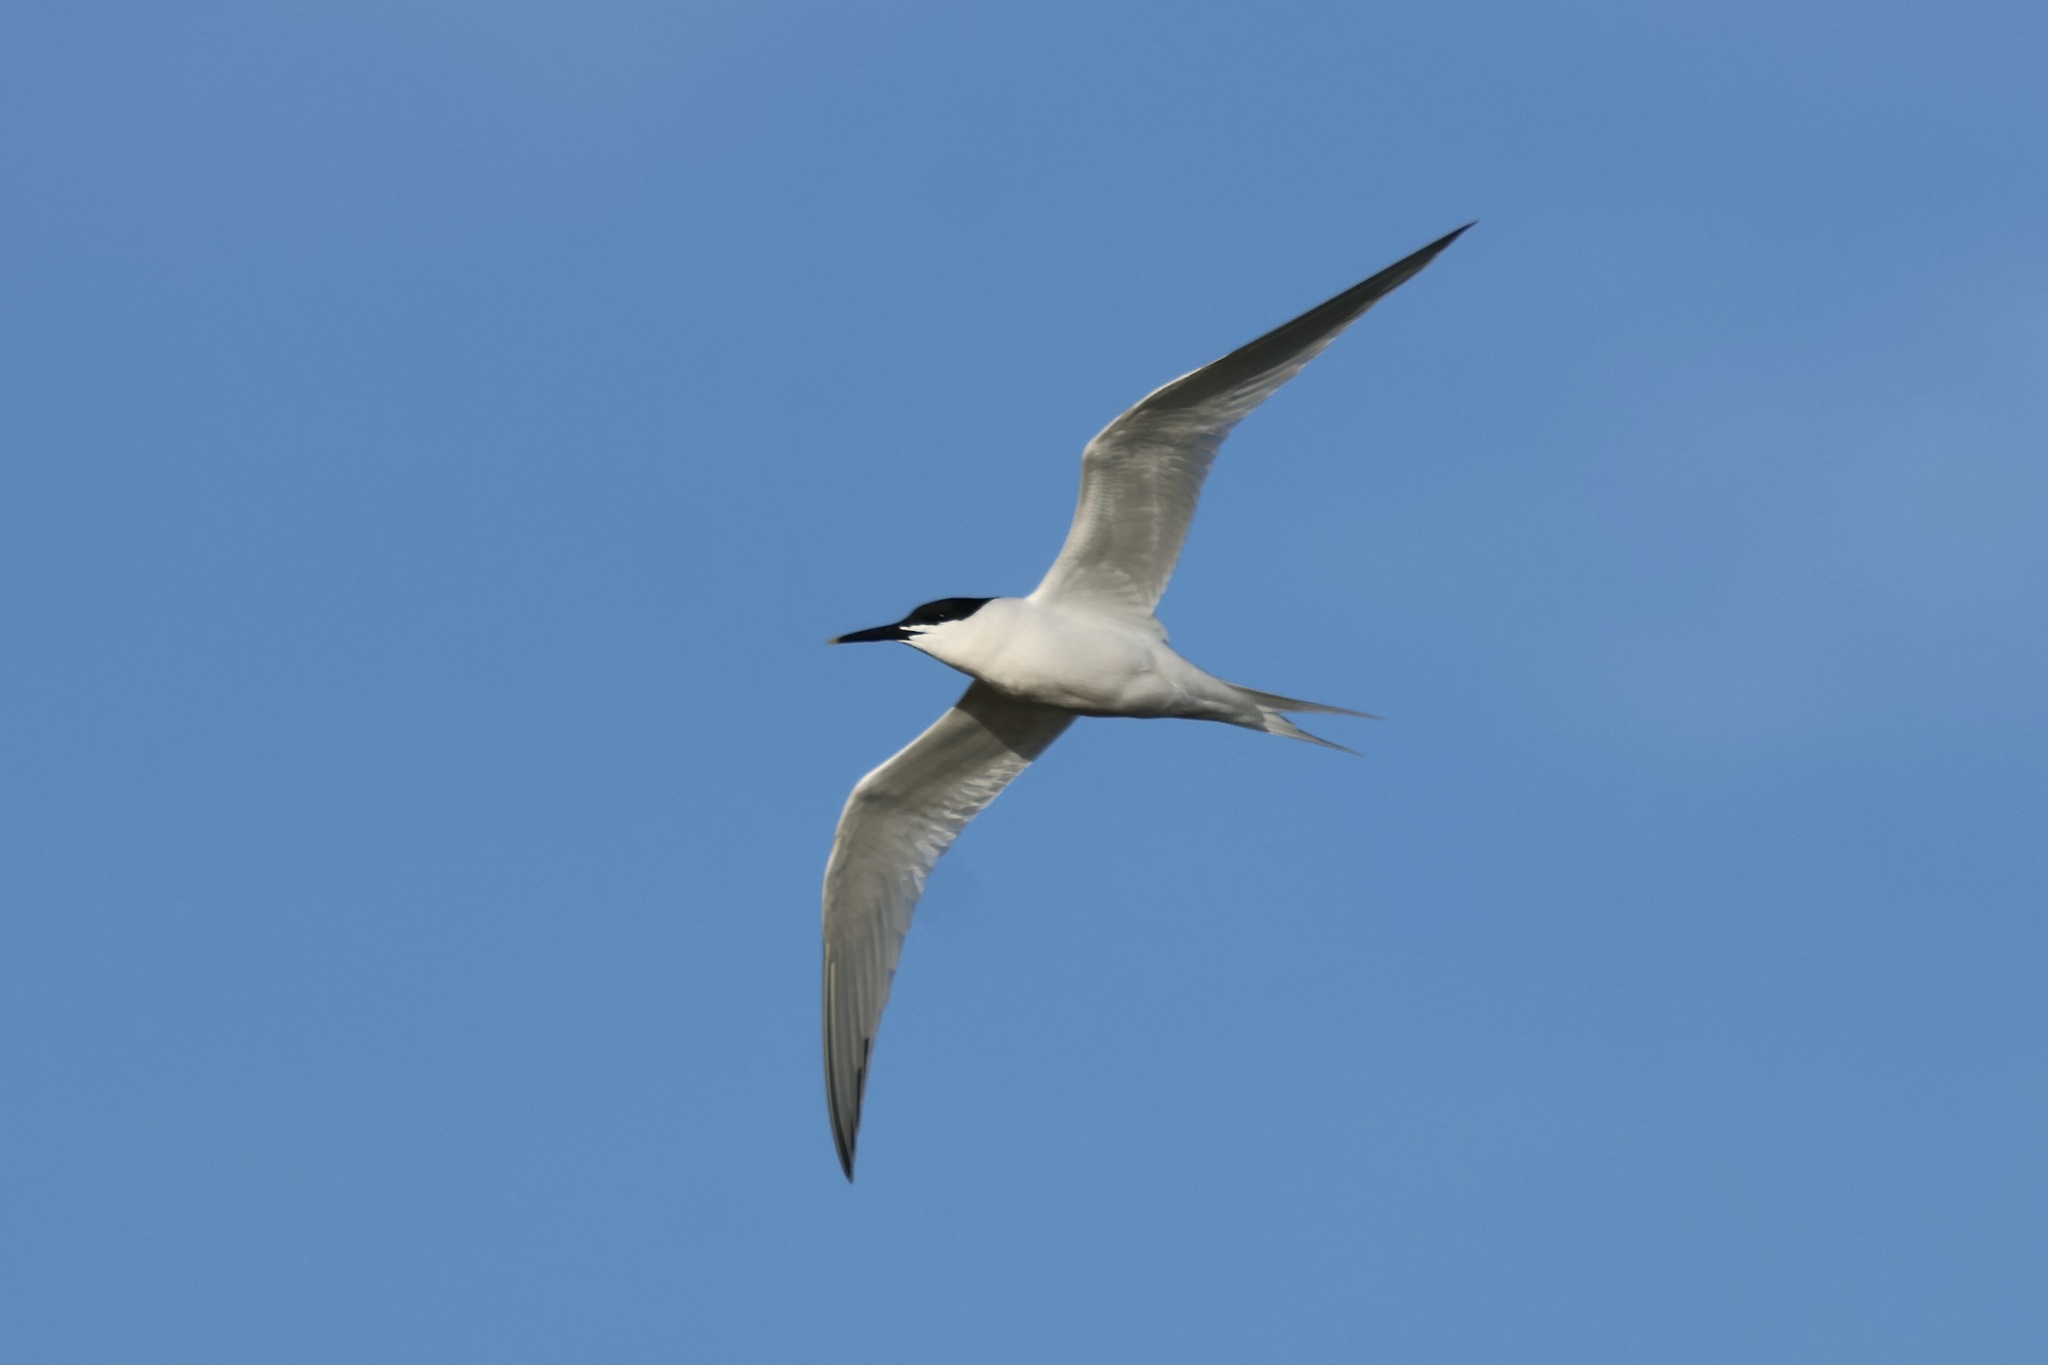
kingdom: Animalia
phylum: Chordata
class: Aves
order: Charadriiformes
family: Laridae
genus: Thalasseus
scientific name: Thalasseus sandvicensis
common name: Sandwich tern
